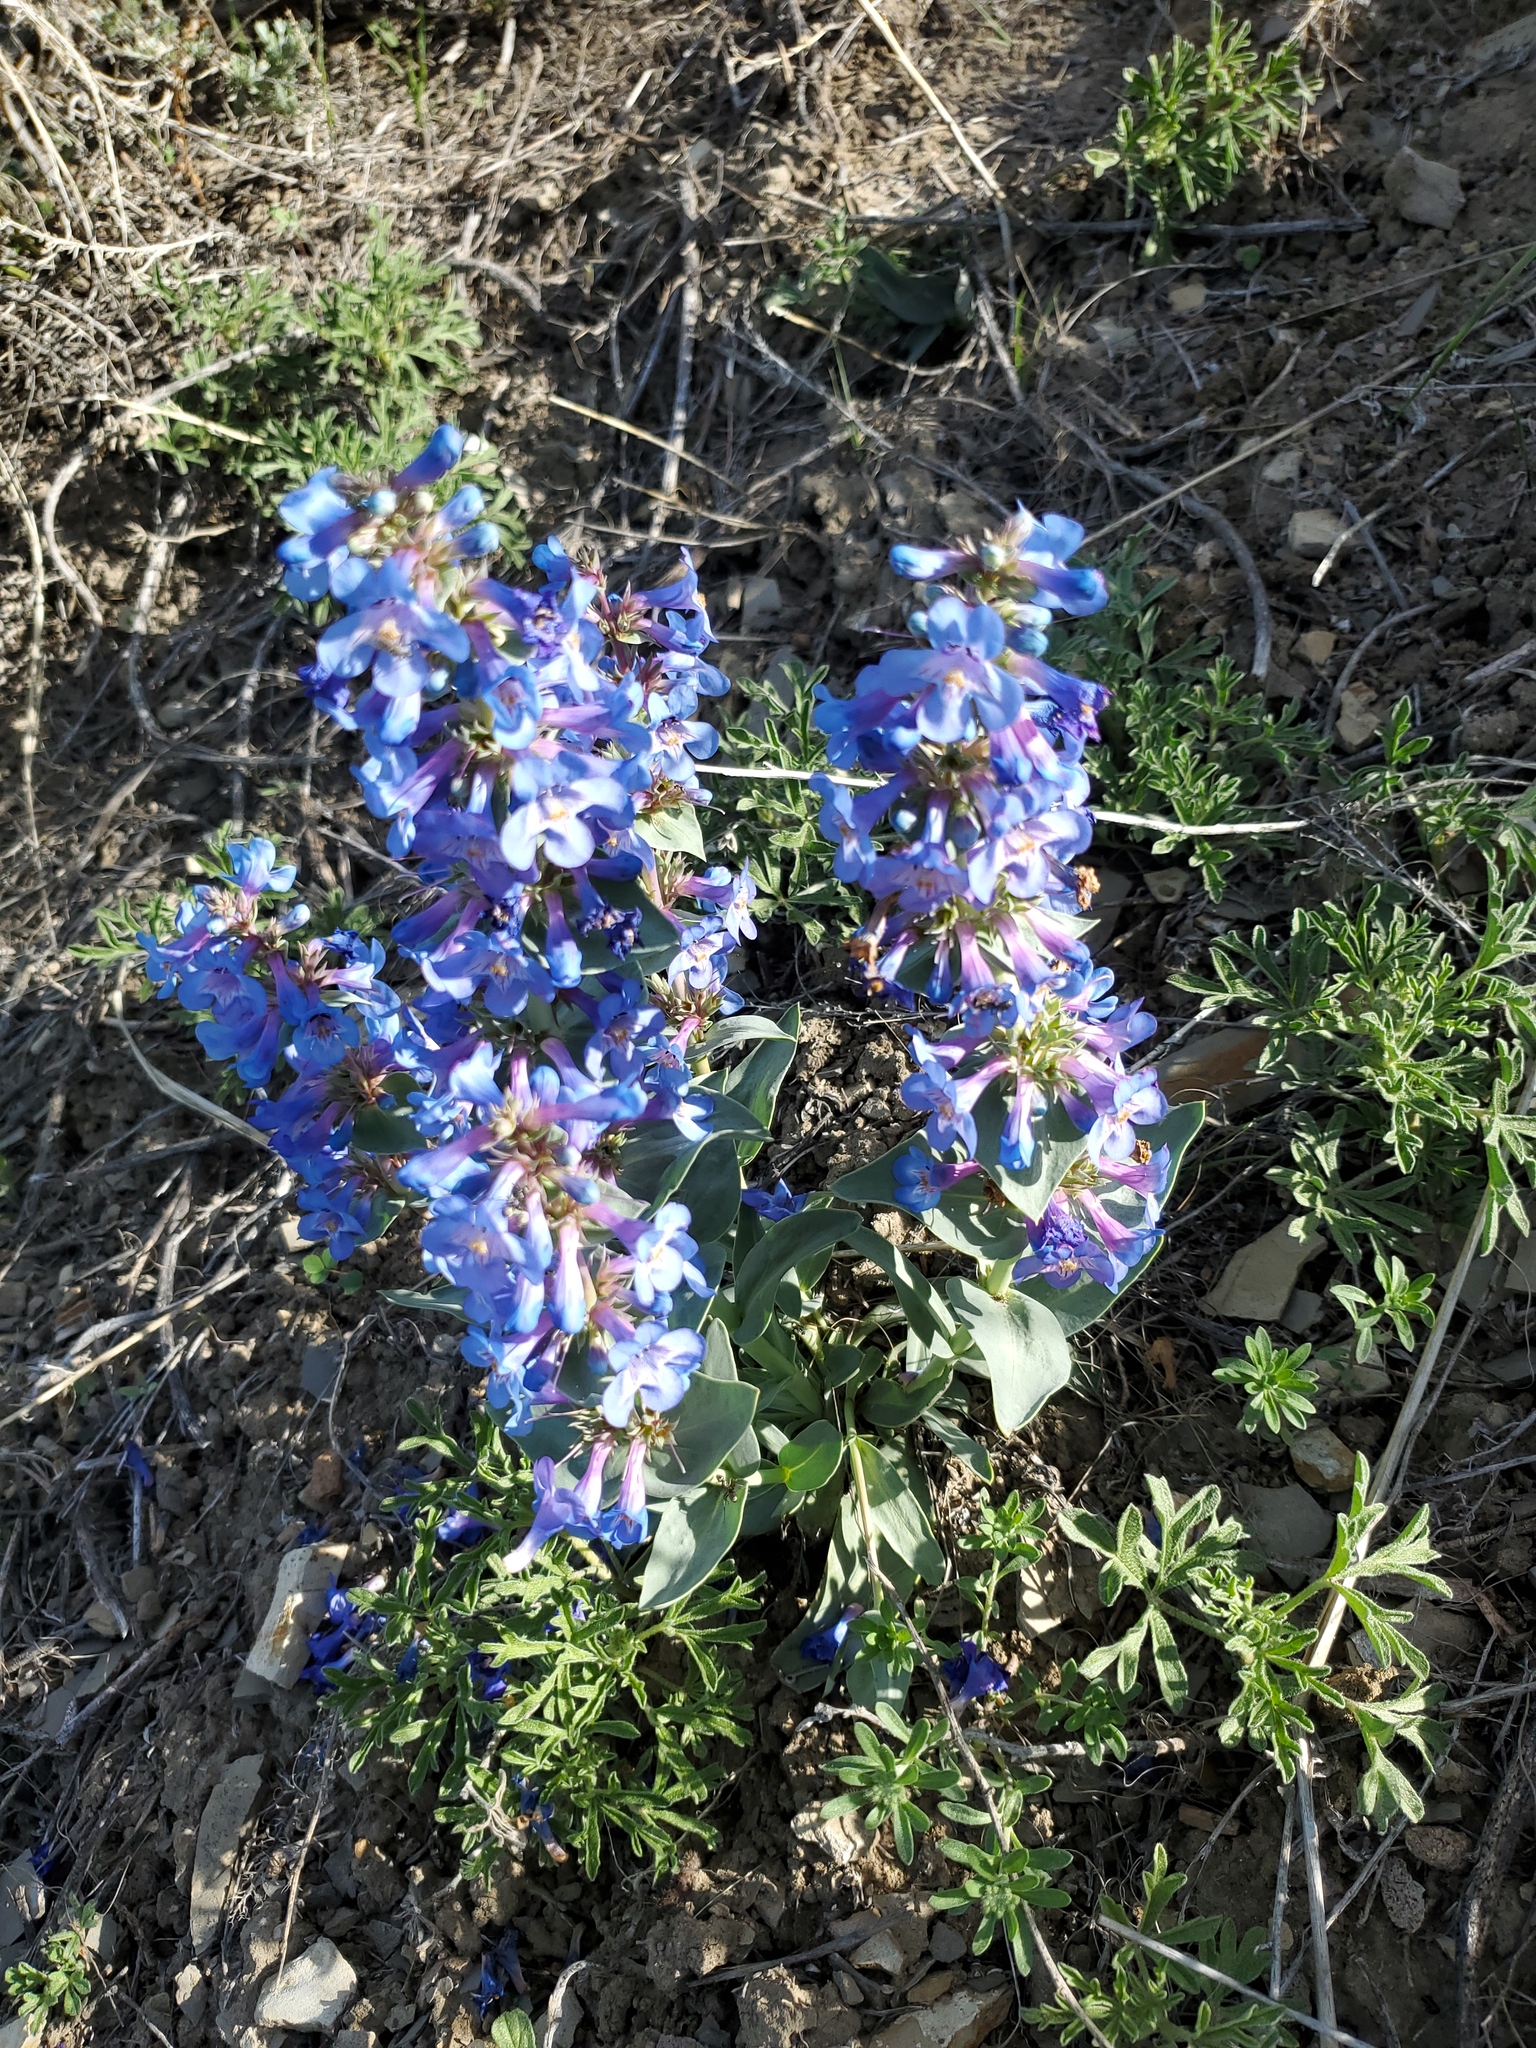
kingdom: Plantae
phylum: Tracheophyta
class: Magnoliopsida
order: Lamiales
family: Plantaginaceae
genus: Penstemon
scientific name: Penstemon nitidus
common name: Shining penstemon
